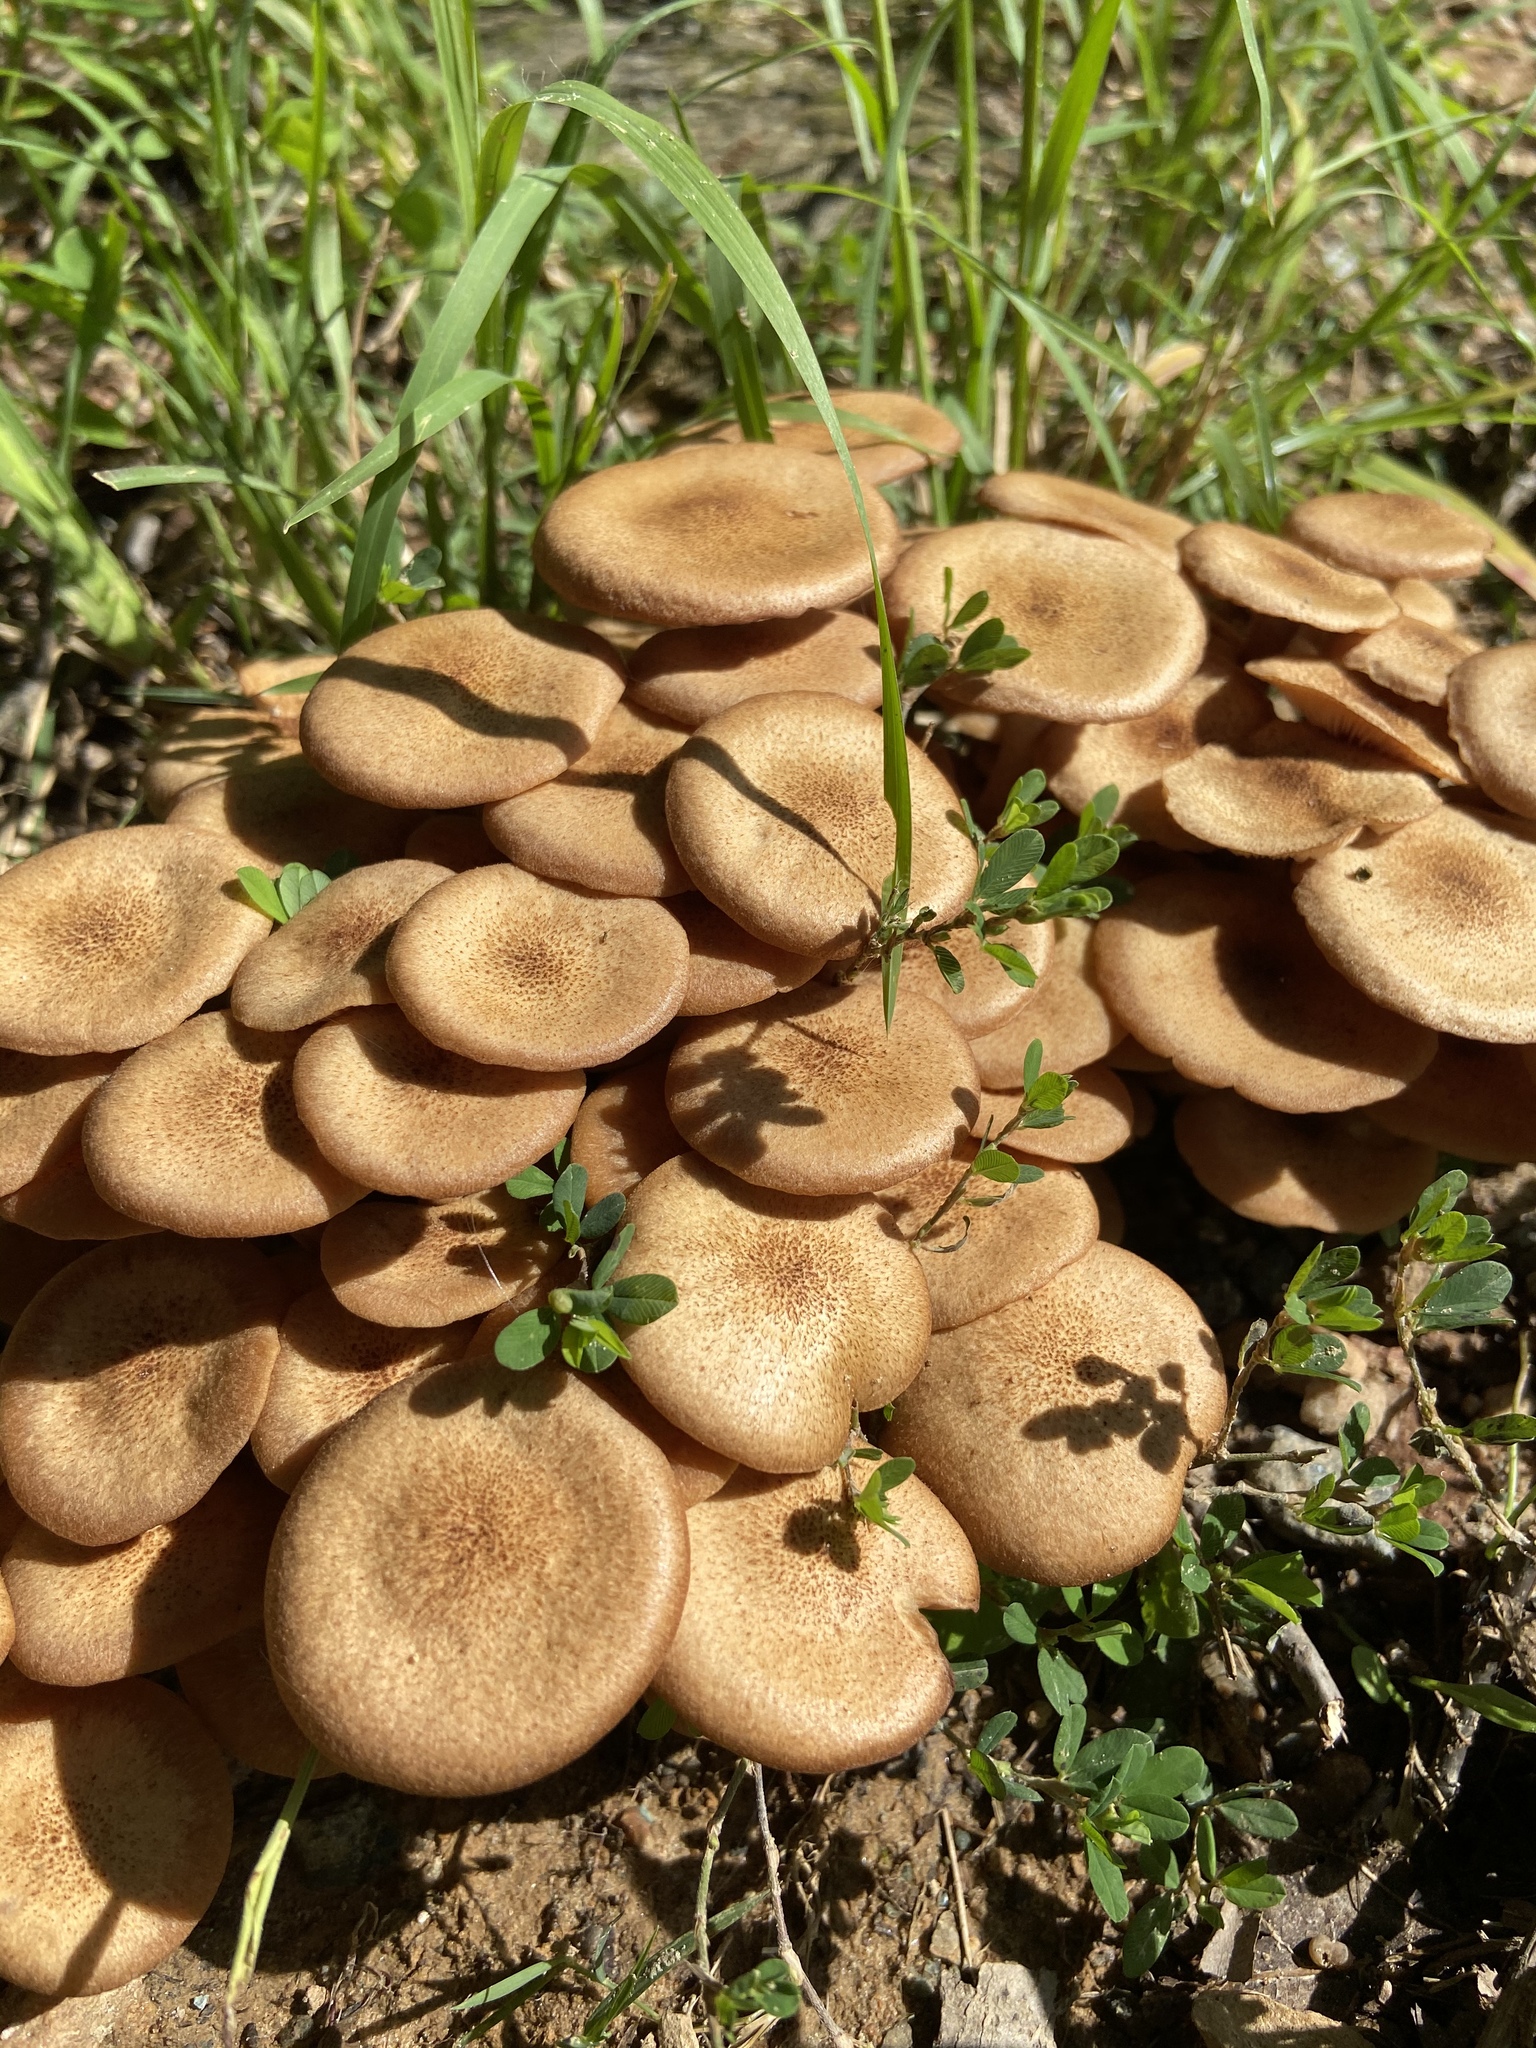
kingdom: Fungi
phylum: Basidiomycota
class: Agaricomycetes
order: Agaricales
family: Physalacriaceae
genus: Desarmillaria
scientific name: Desarmillaria caespitosa
